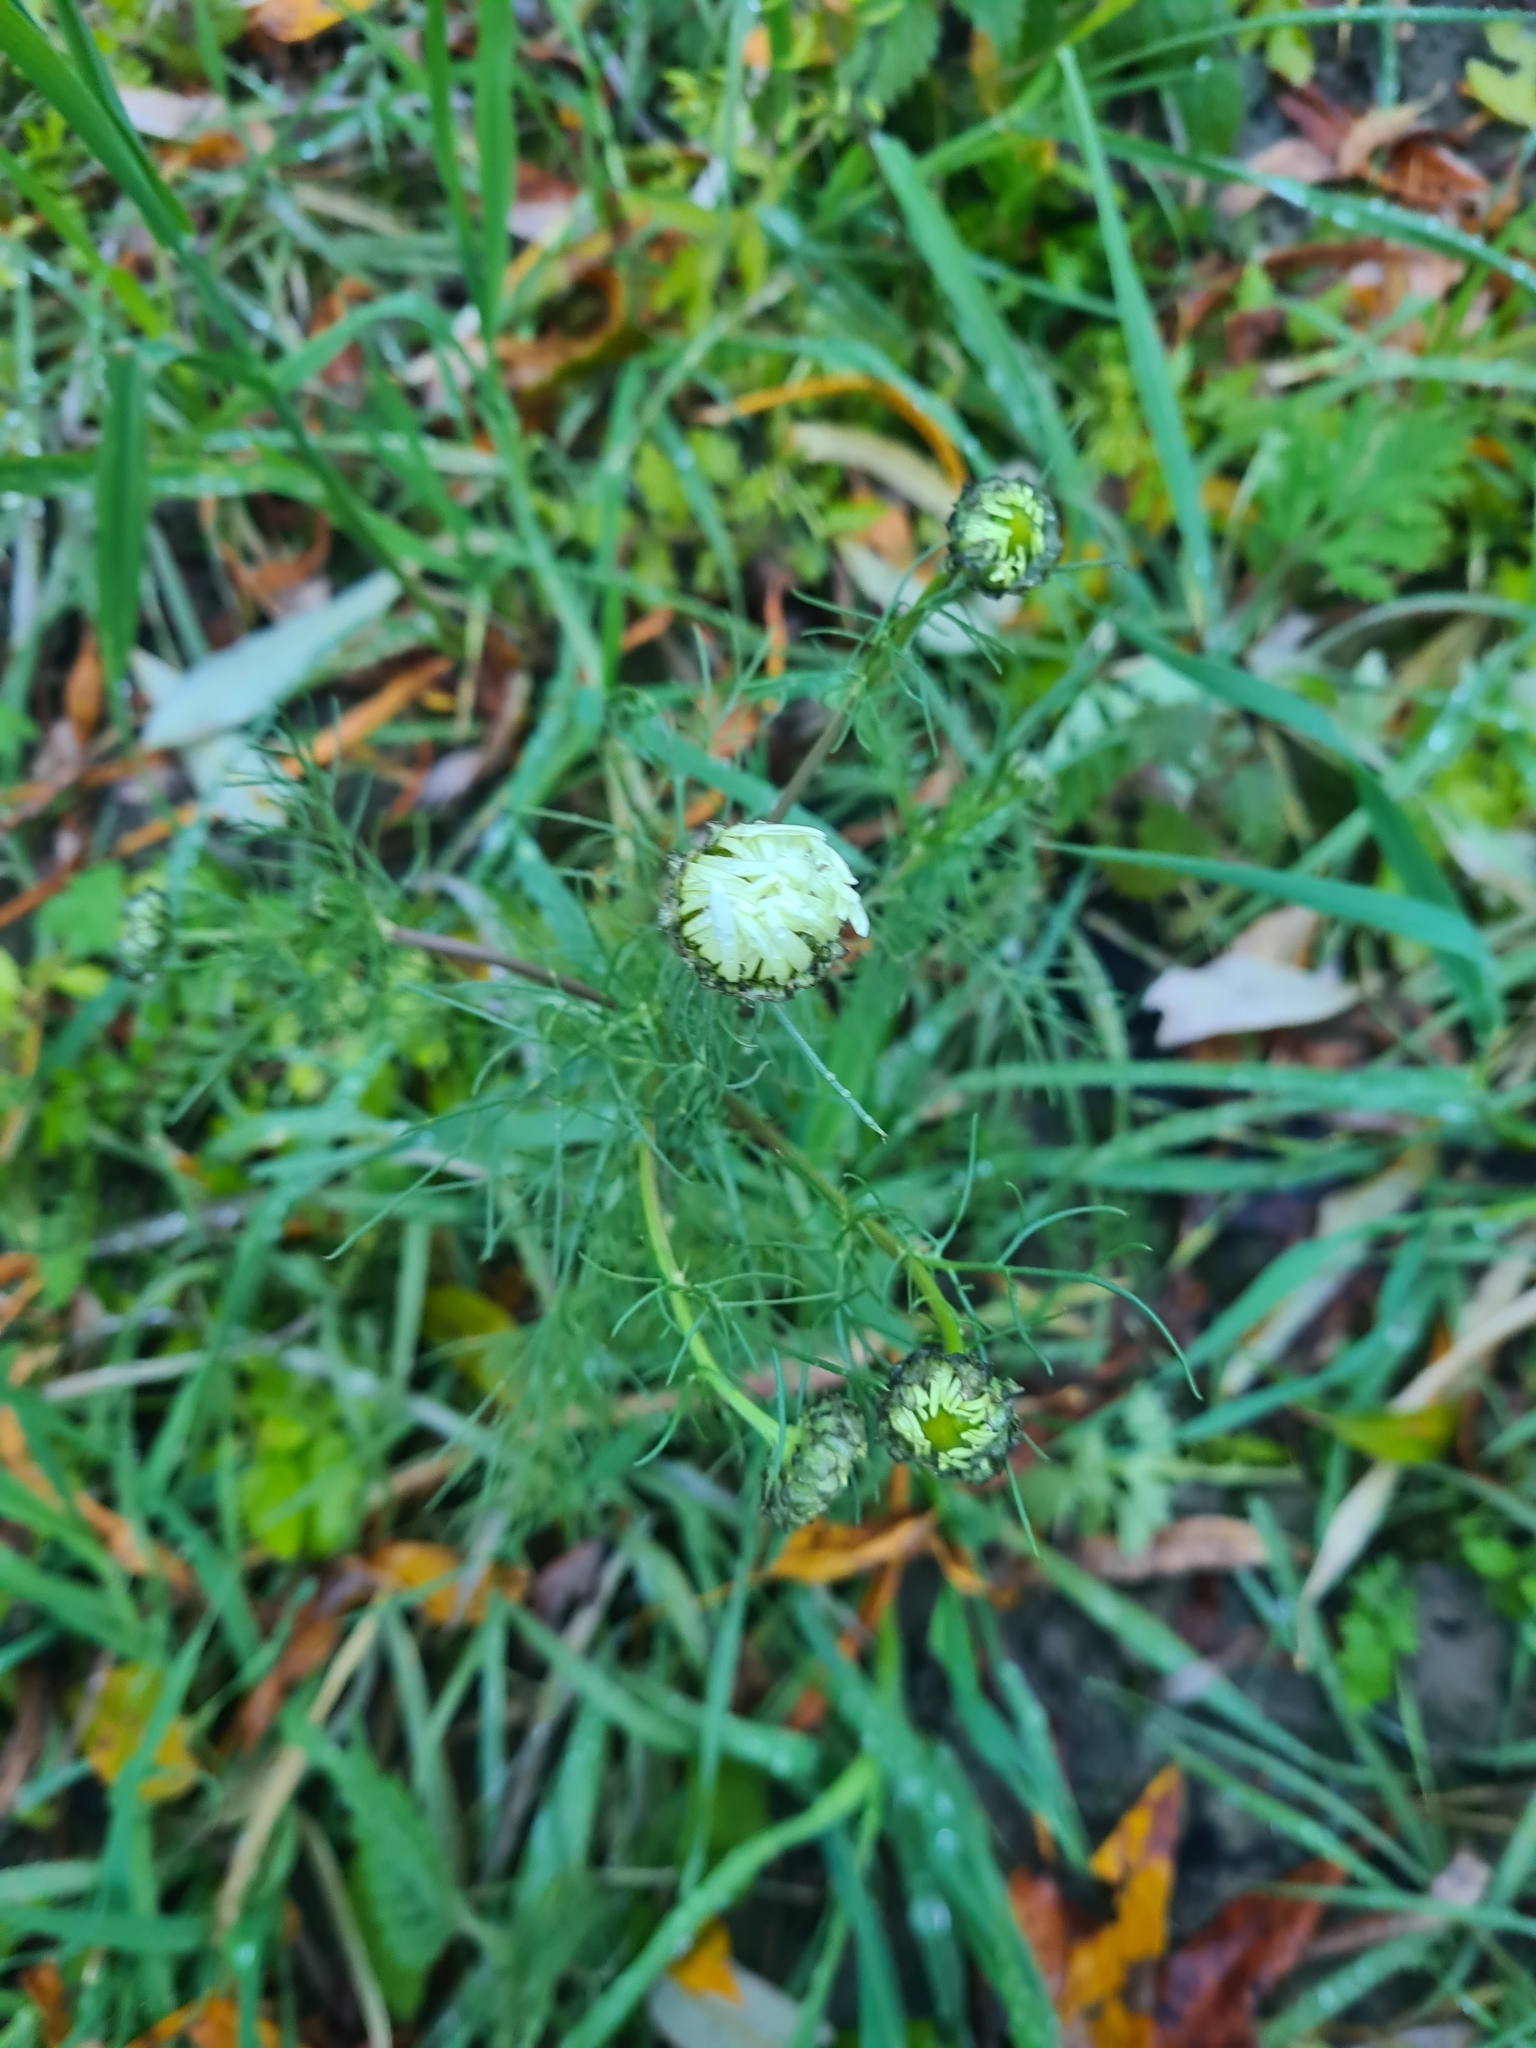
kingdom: Plantae
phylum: Tracheophyta
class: Magnoliopsida
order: Asterales
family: Asteraceae
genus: Tripleurospermum
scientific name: Tripleurospermum inodorum
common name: Scentless mayweed
